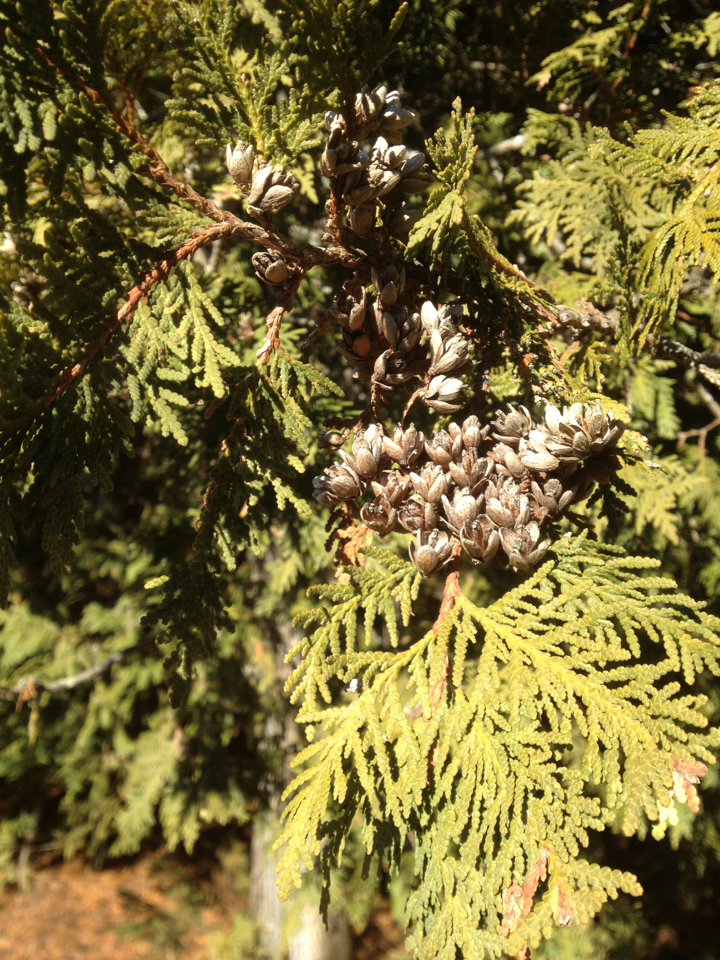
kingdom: Plantae
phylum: Tracheophyta
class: Pinopsida
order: Pinales
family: Cupressaceae
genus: Thuja
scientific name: Thuja occidentalis
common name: Northern white-cedar
